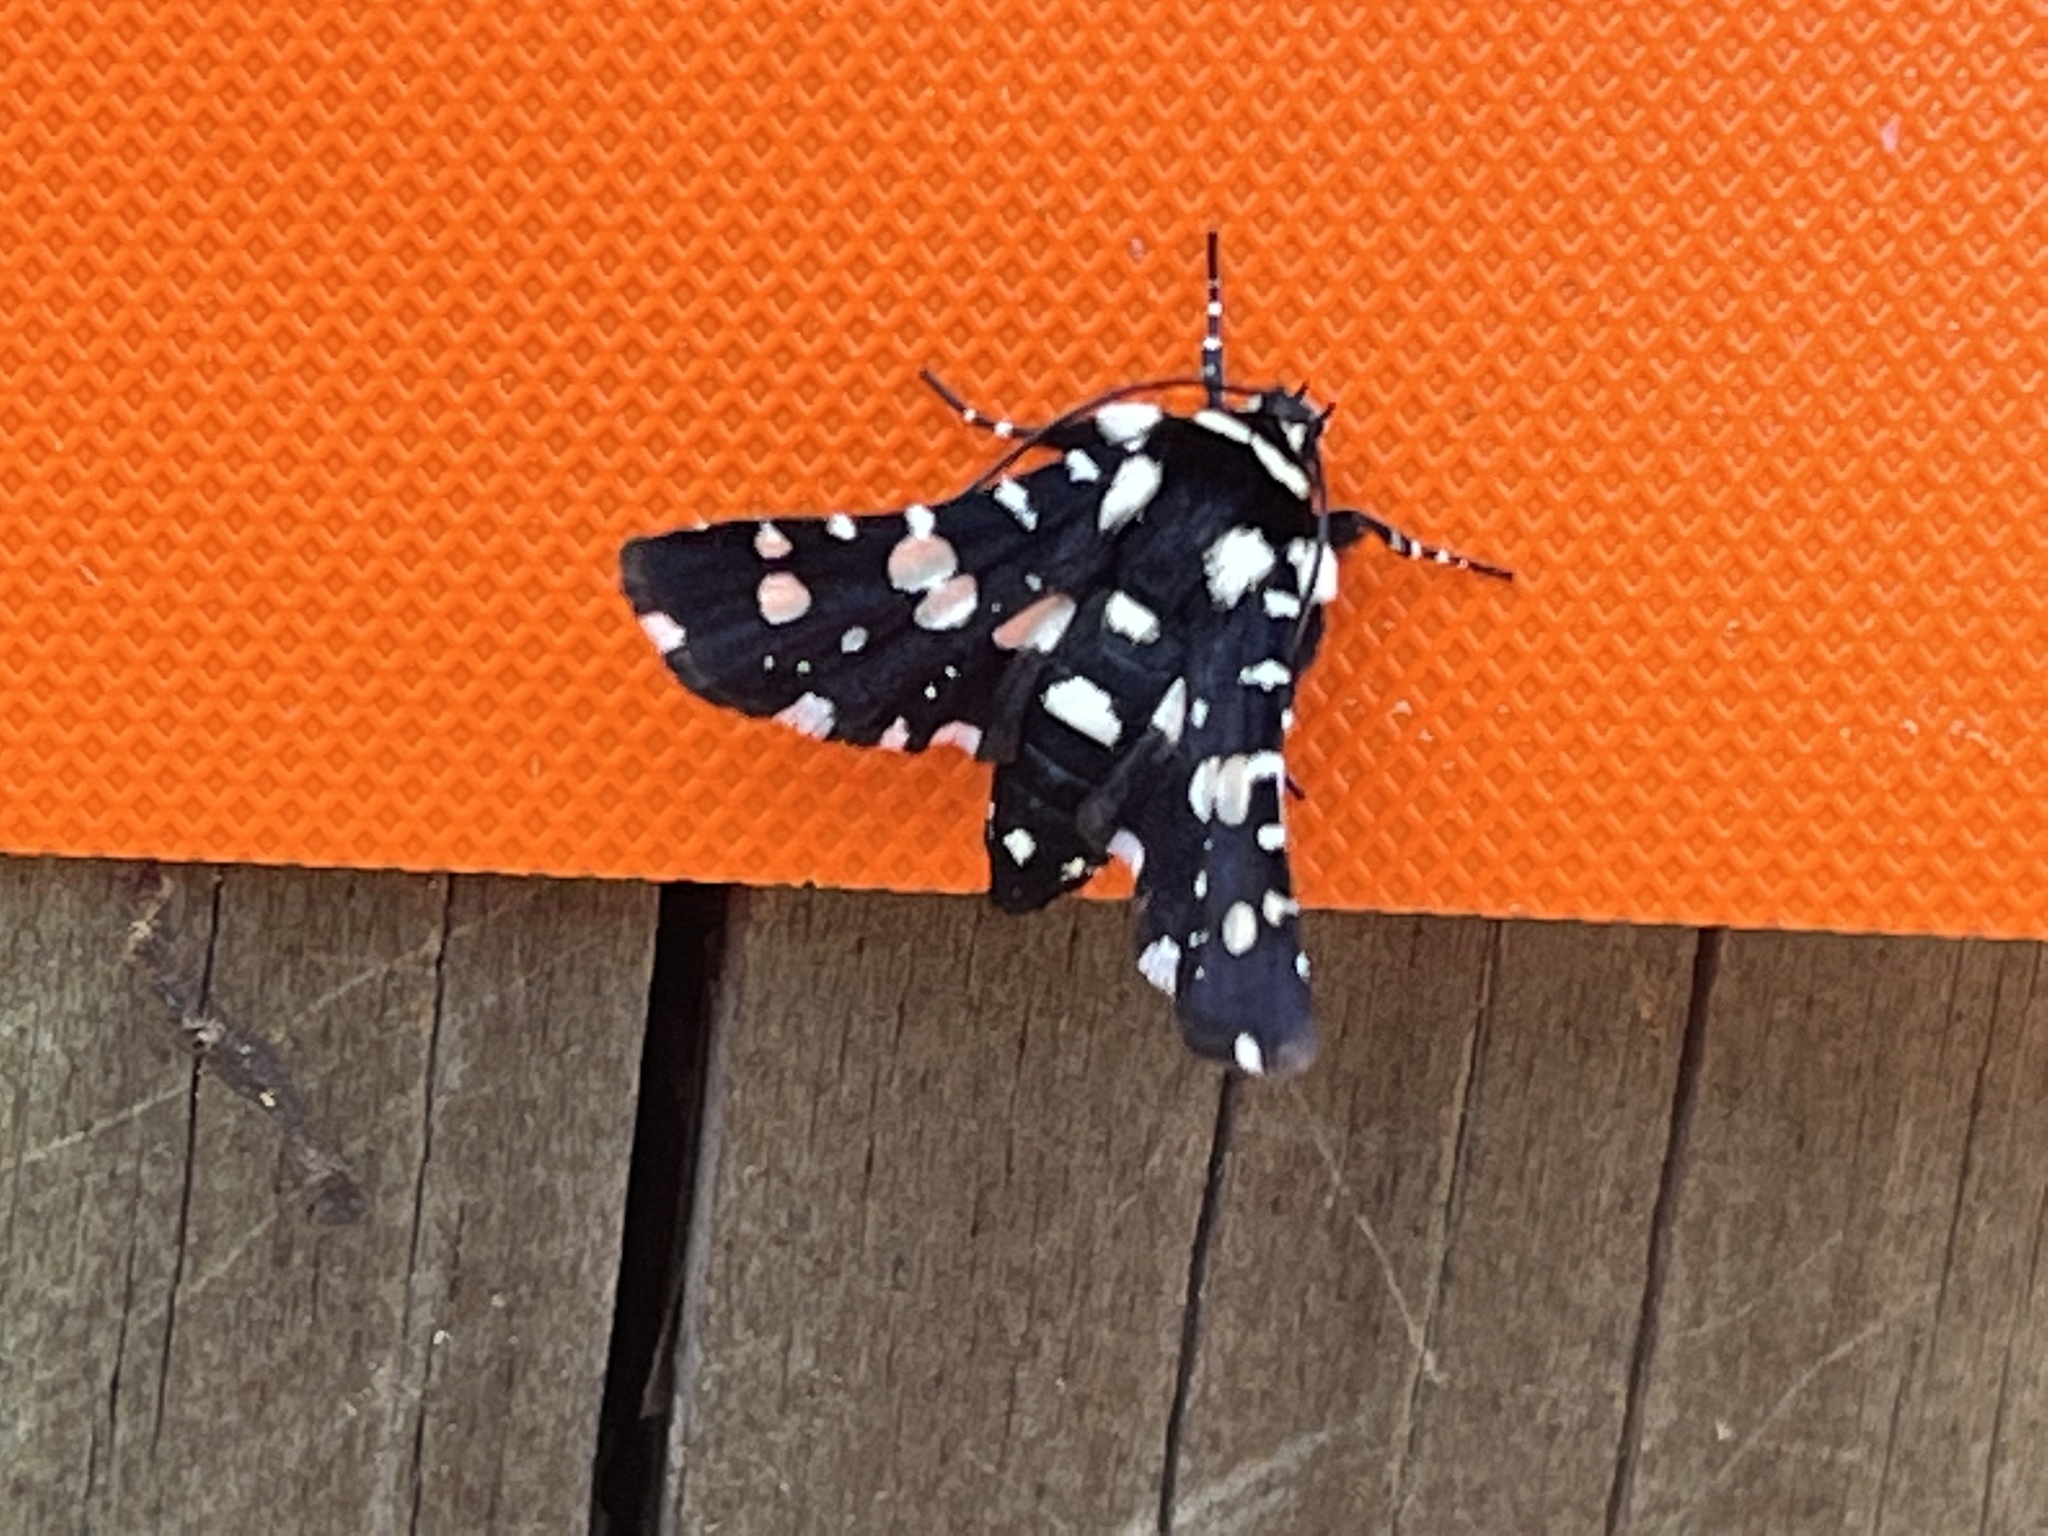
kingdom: Animalia
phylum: Arthropoda
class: Insecta
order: Lepidoptera
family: Thyrididae
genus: Pseudothyris
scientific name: Pseudothyris sepulchralis
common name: Mournful thyris moth
